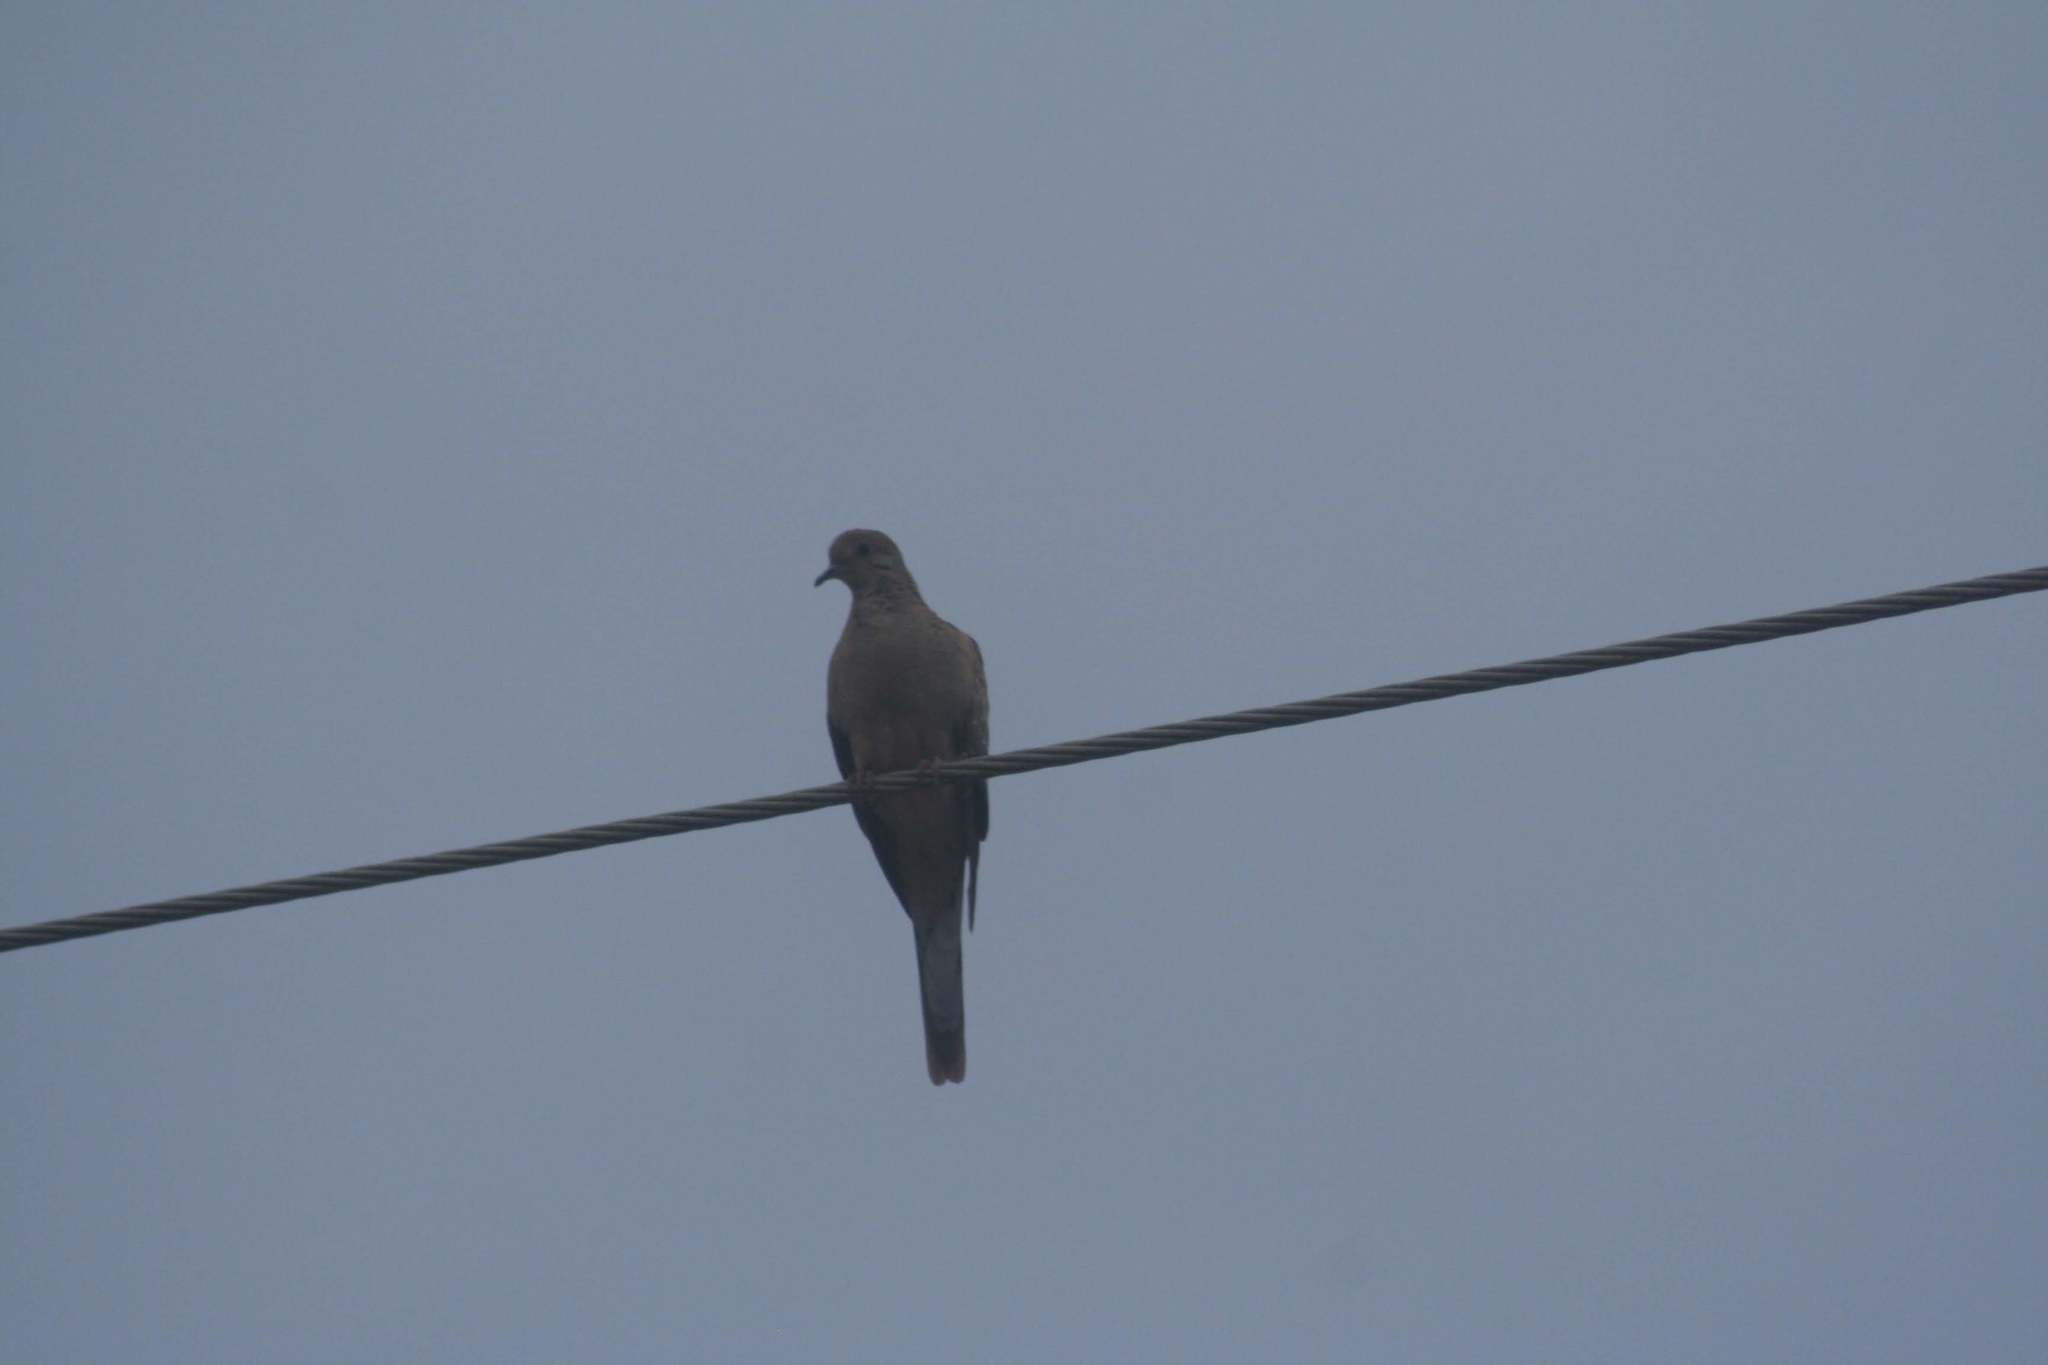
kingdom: Animalia
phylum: Chordata
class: Aves
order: Columbiformes
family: Columbidae
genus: Zenaida
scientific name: Zenaida macroura
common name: Mourning dove
